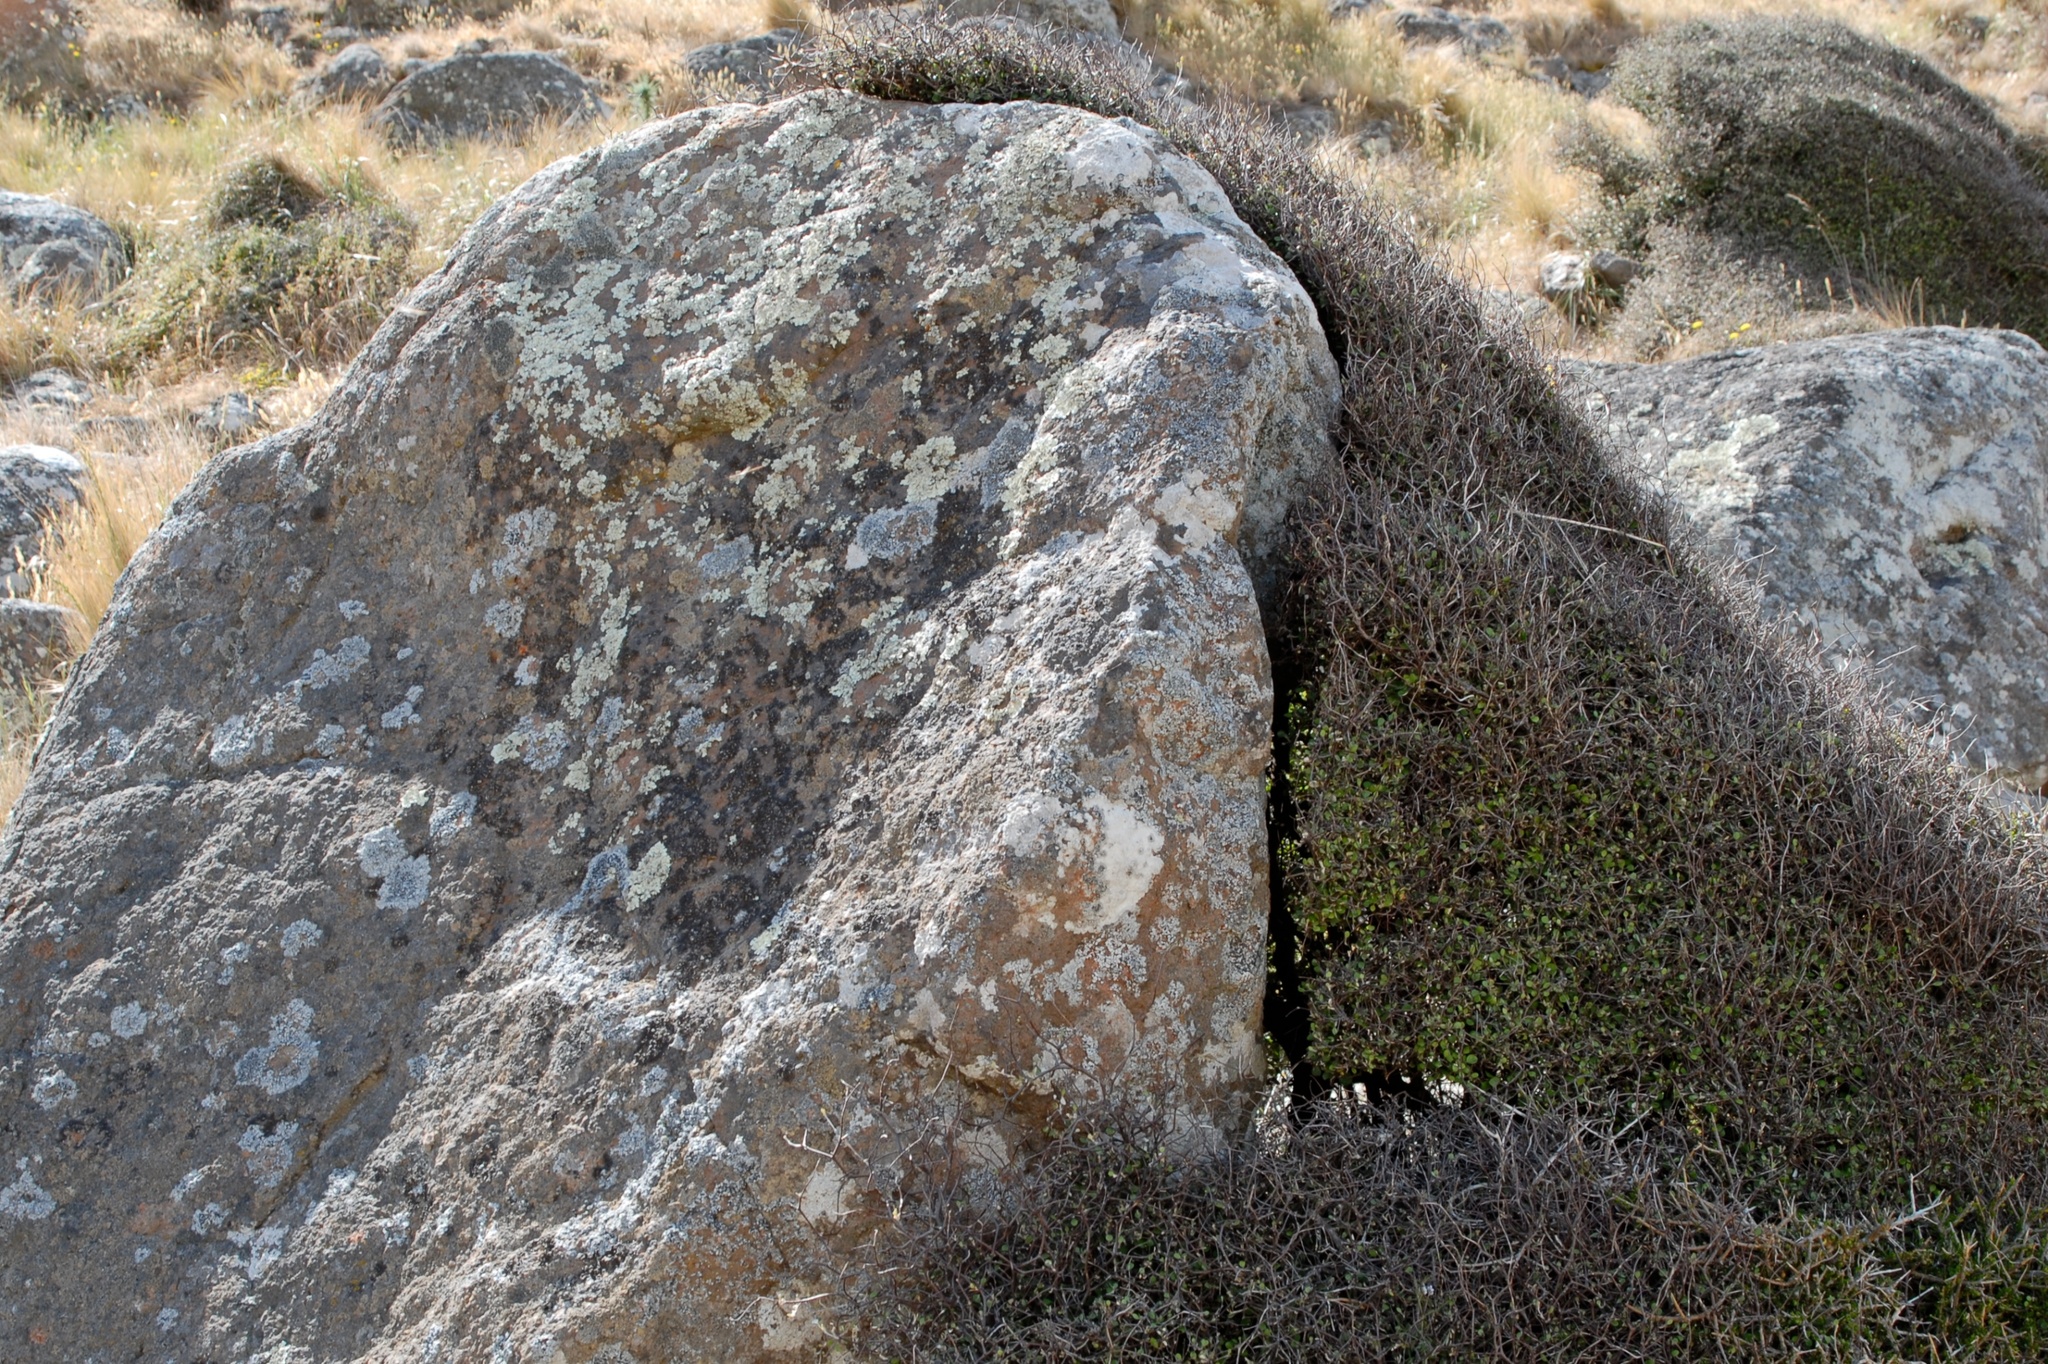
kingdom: Plantae
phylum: Tracheophyta
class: Magnoliopsida
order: Asterales
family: Argophyllaceae
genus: Corokia
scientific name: Corokia cotoneaster
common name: Wire nettingbush
